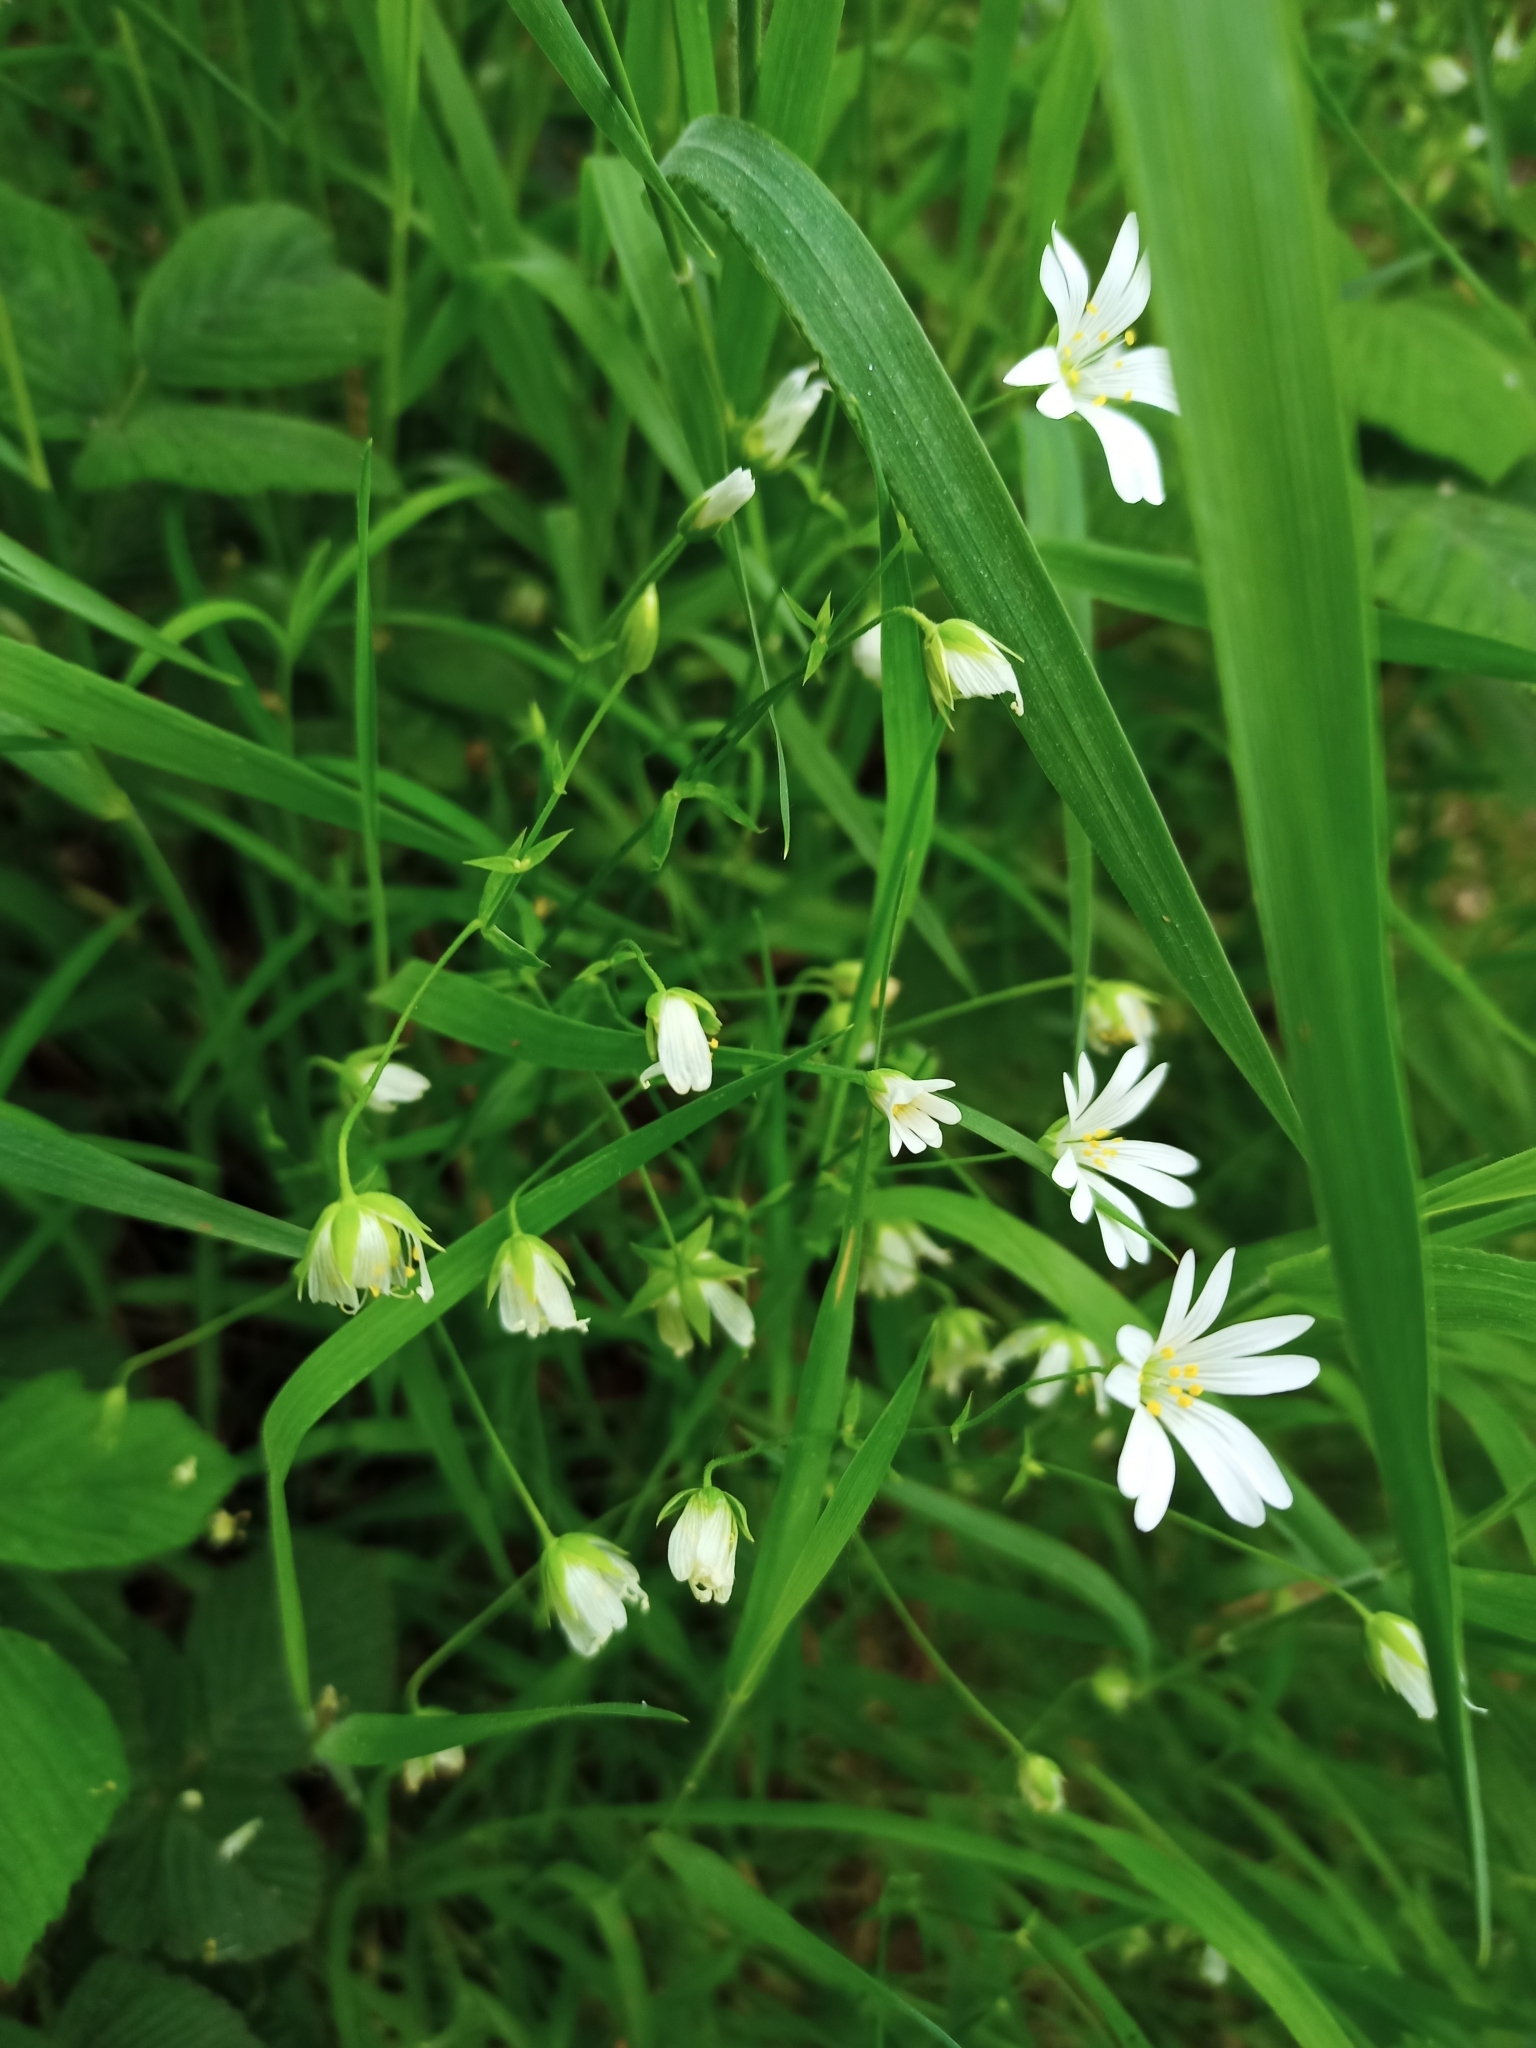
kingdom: Plantae
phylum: Tracheophyta
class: Magnoliopsida
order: Caryophyllales
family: Caryophyllaceae
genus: Rabelera
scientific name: Rabelera holostea
